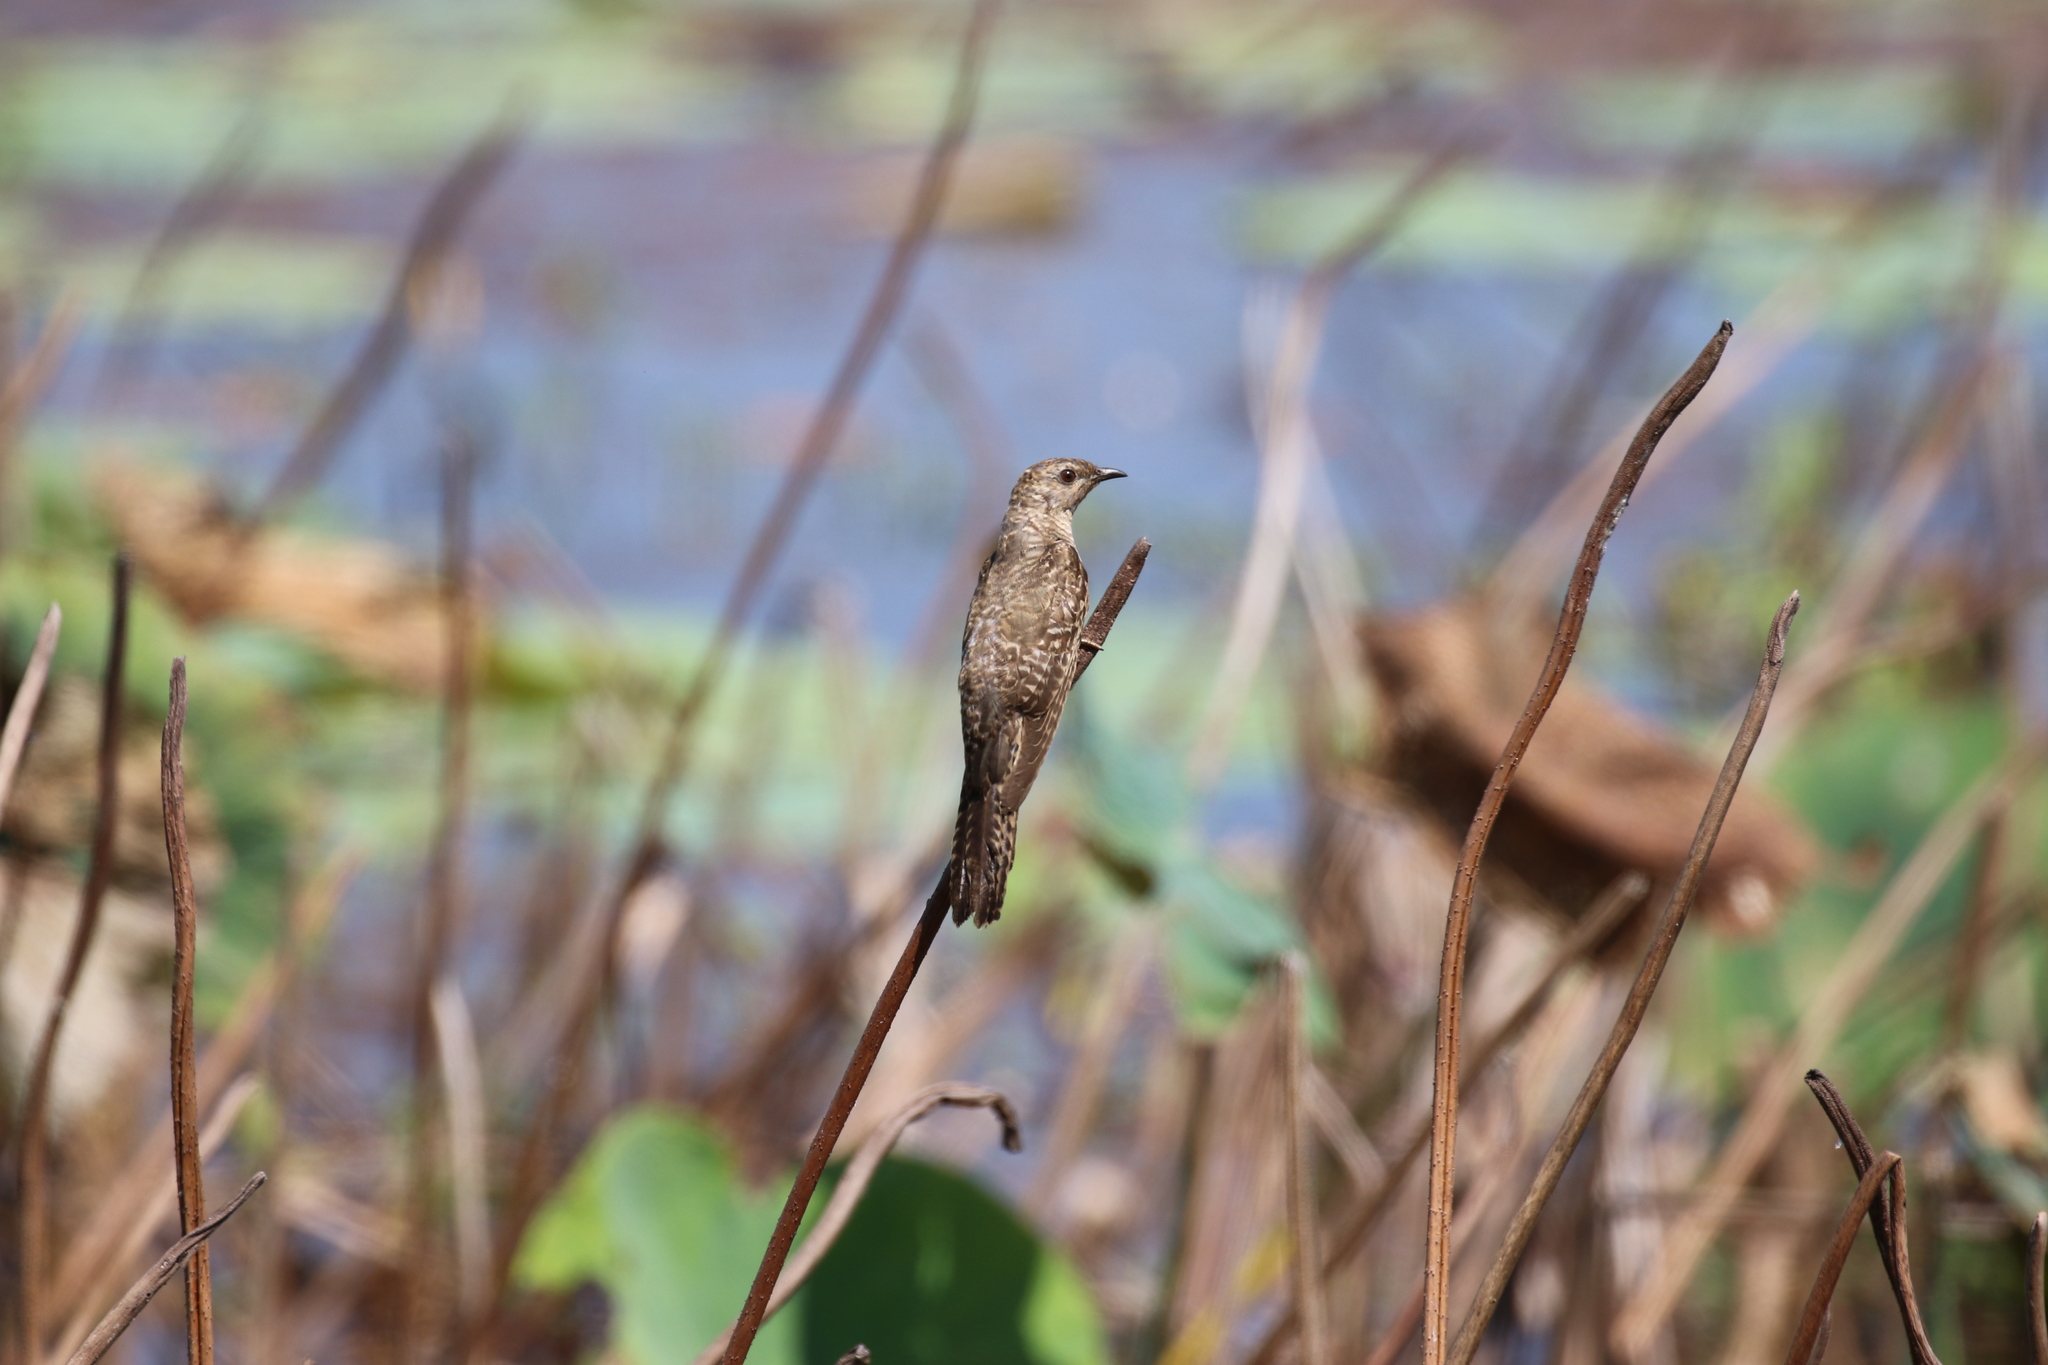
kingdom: Animalia
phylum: Chordata
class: Aves
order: Cuculiformes
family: Cuculidae
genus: Cacomantis
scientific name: Cacomantis variolosus
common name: Brush cuckoo
